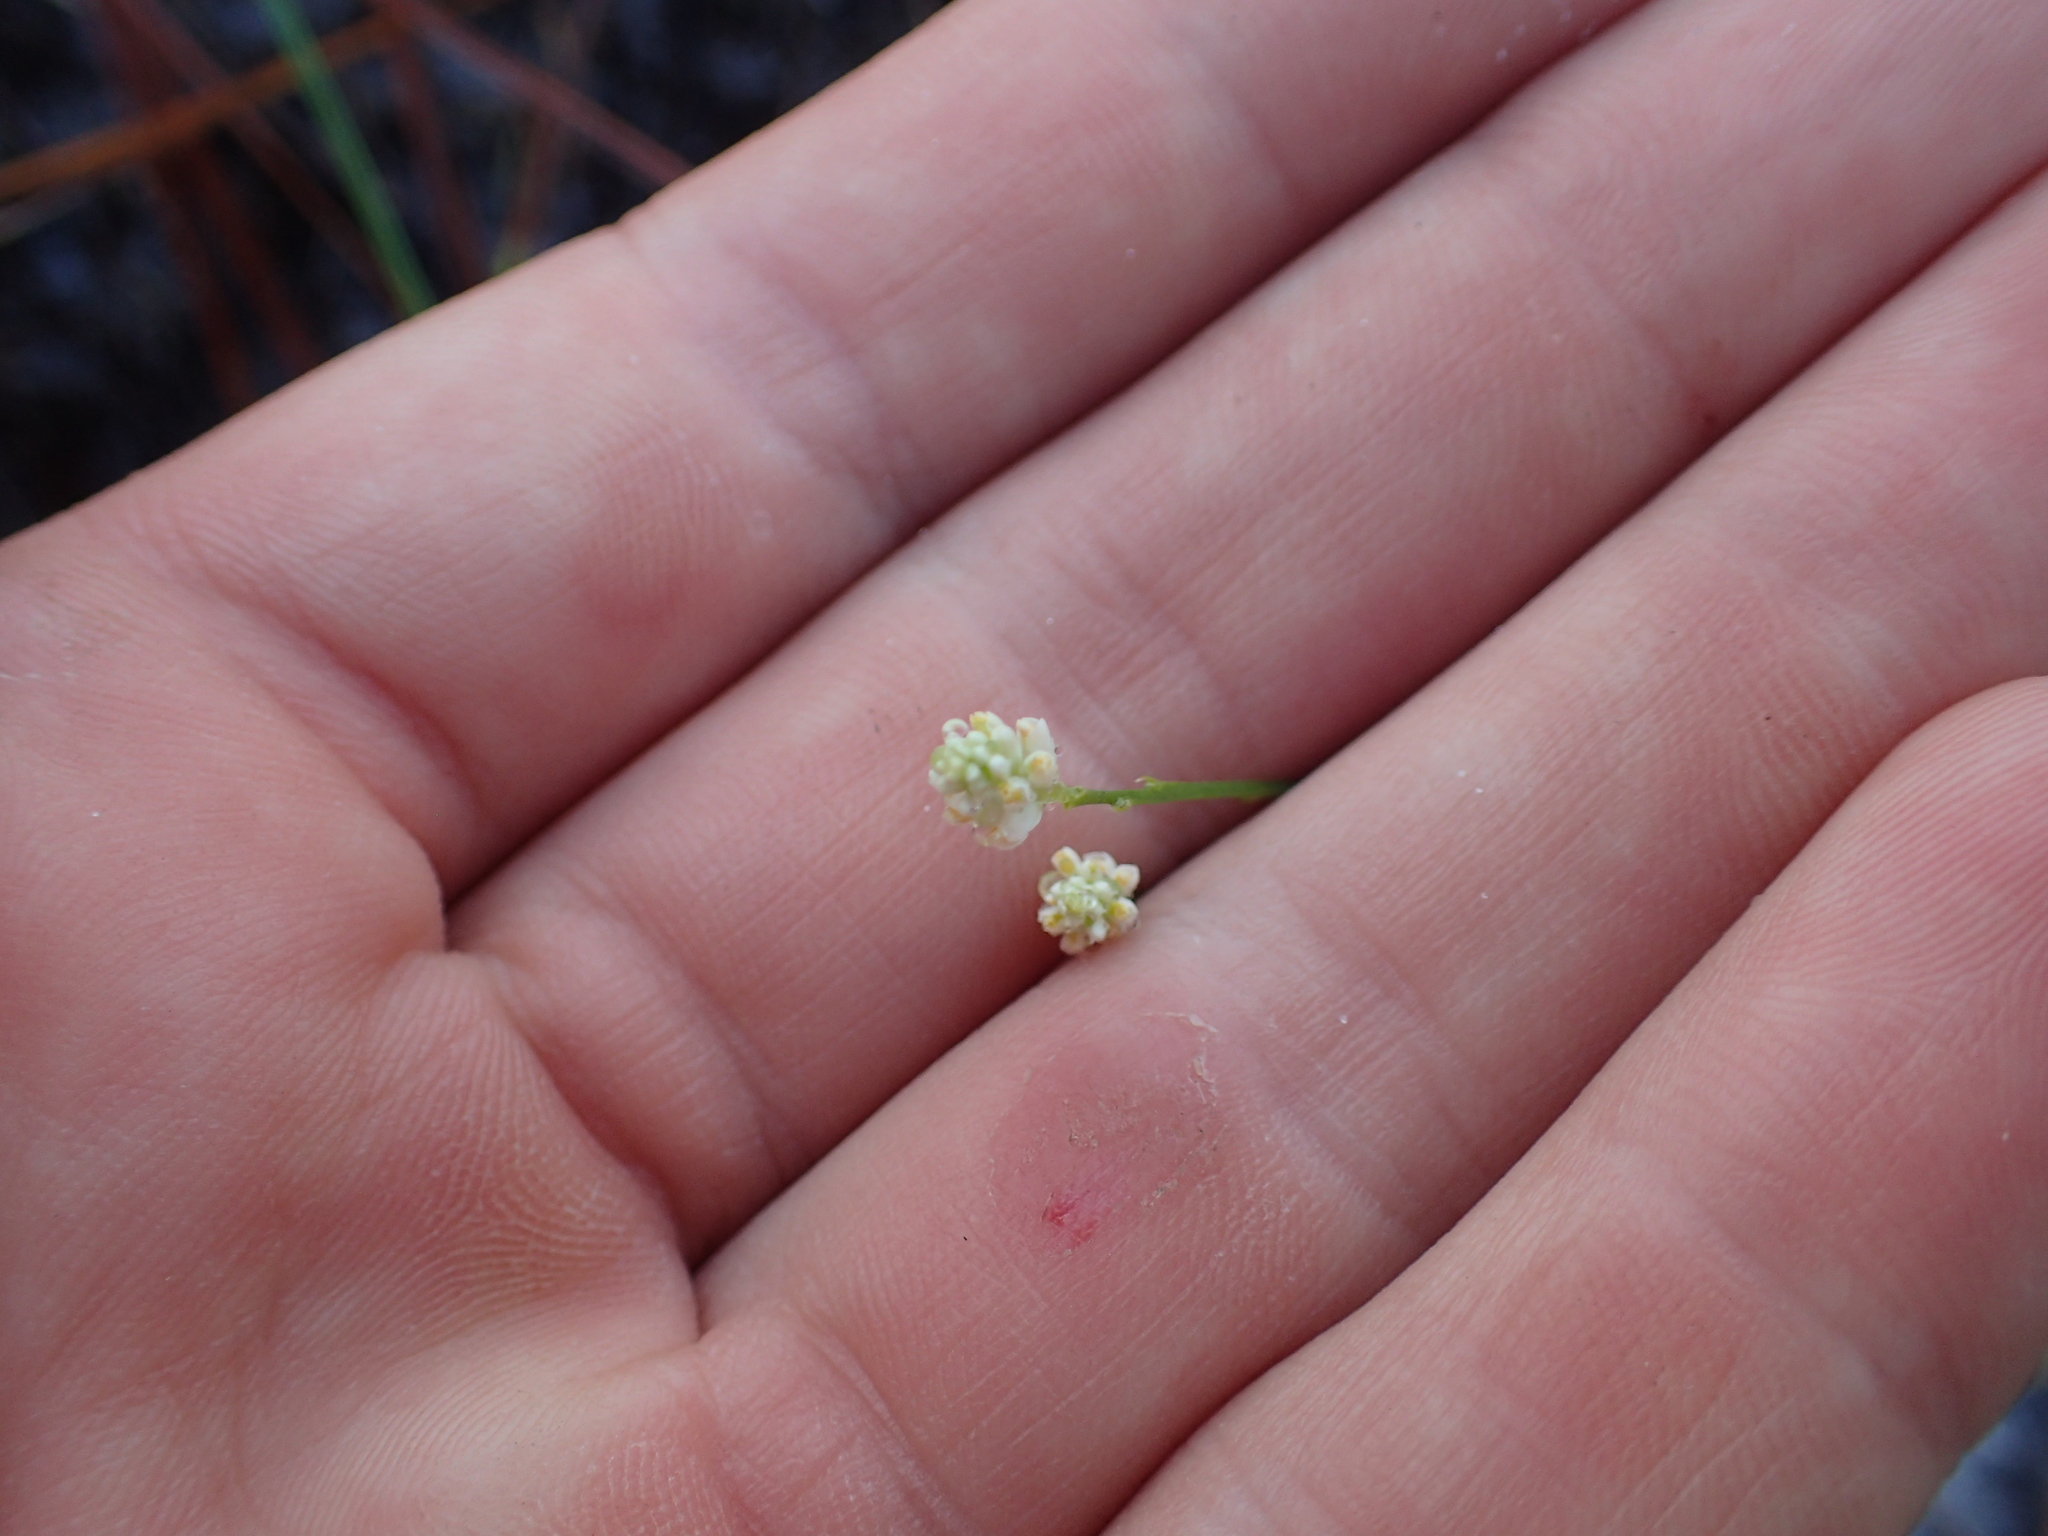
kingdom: Plantae
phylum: Tracheophyta
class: Magnoliopsida
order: Fabales
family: Polygalaceae
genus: Polygala
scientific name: Polygala setacea
